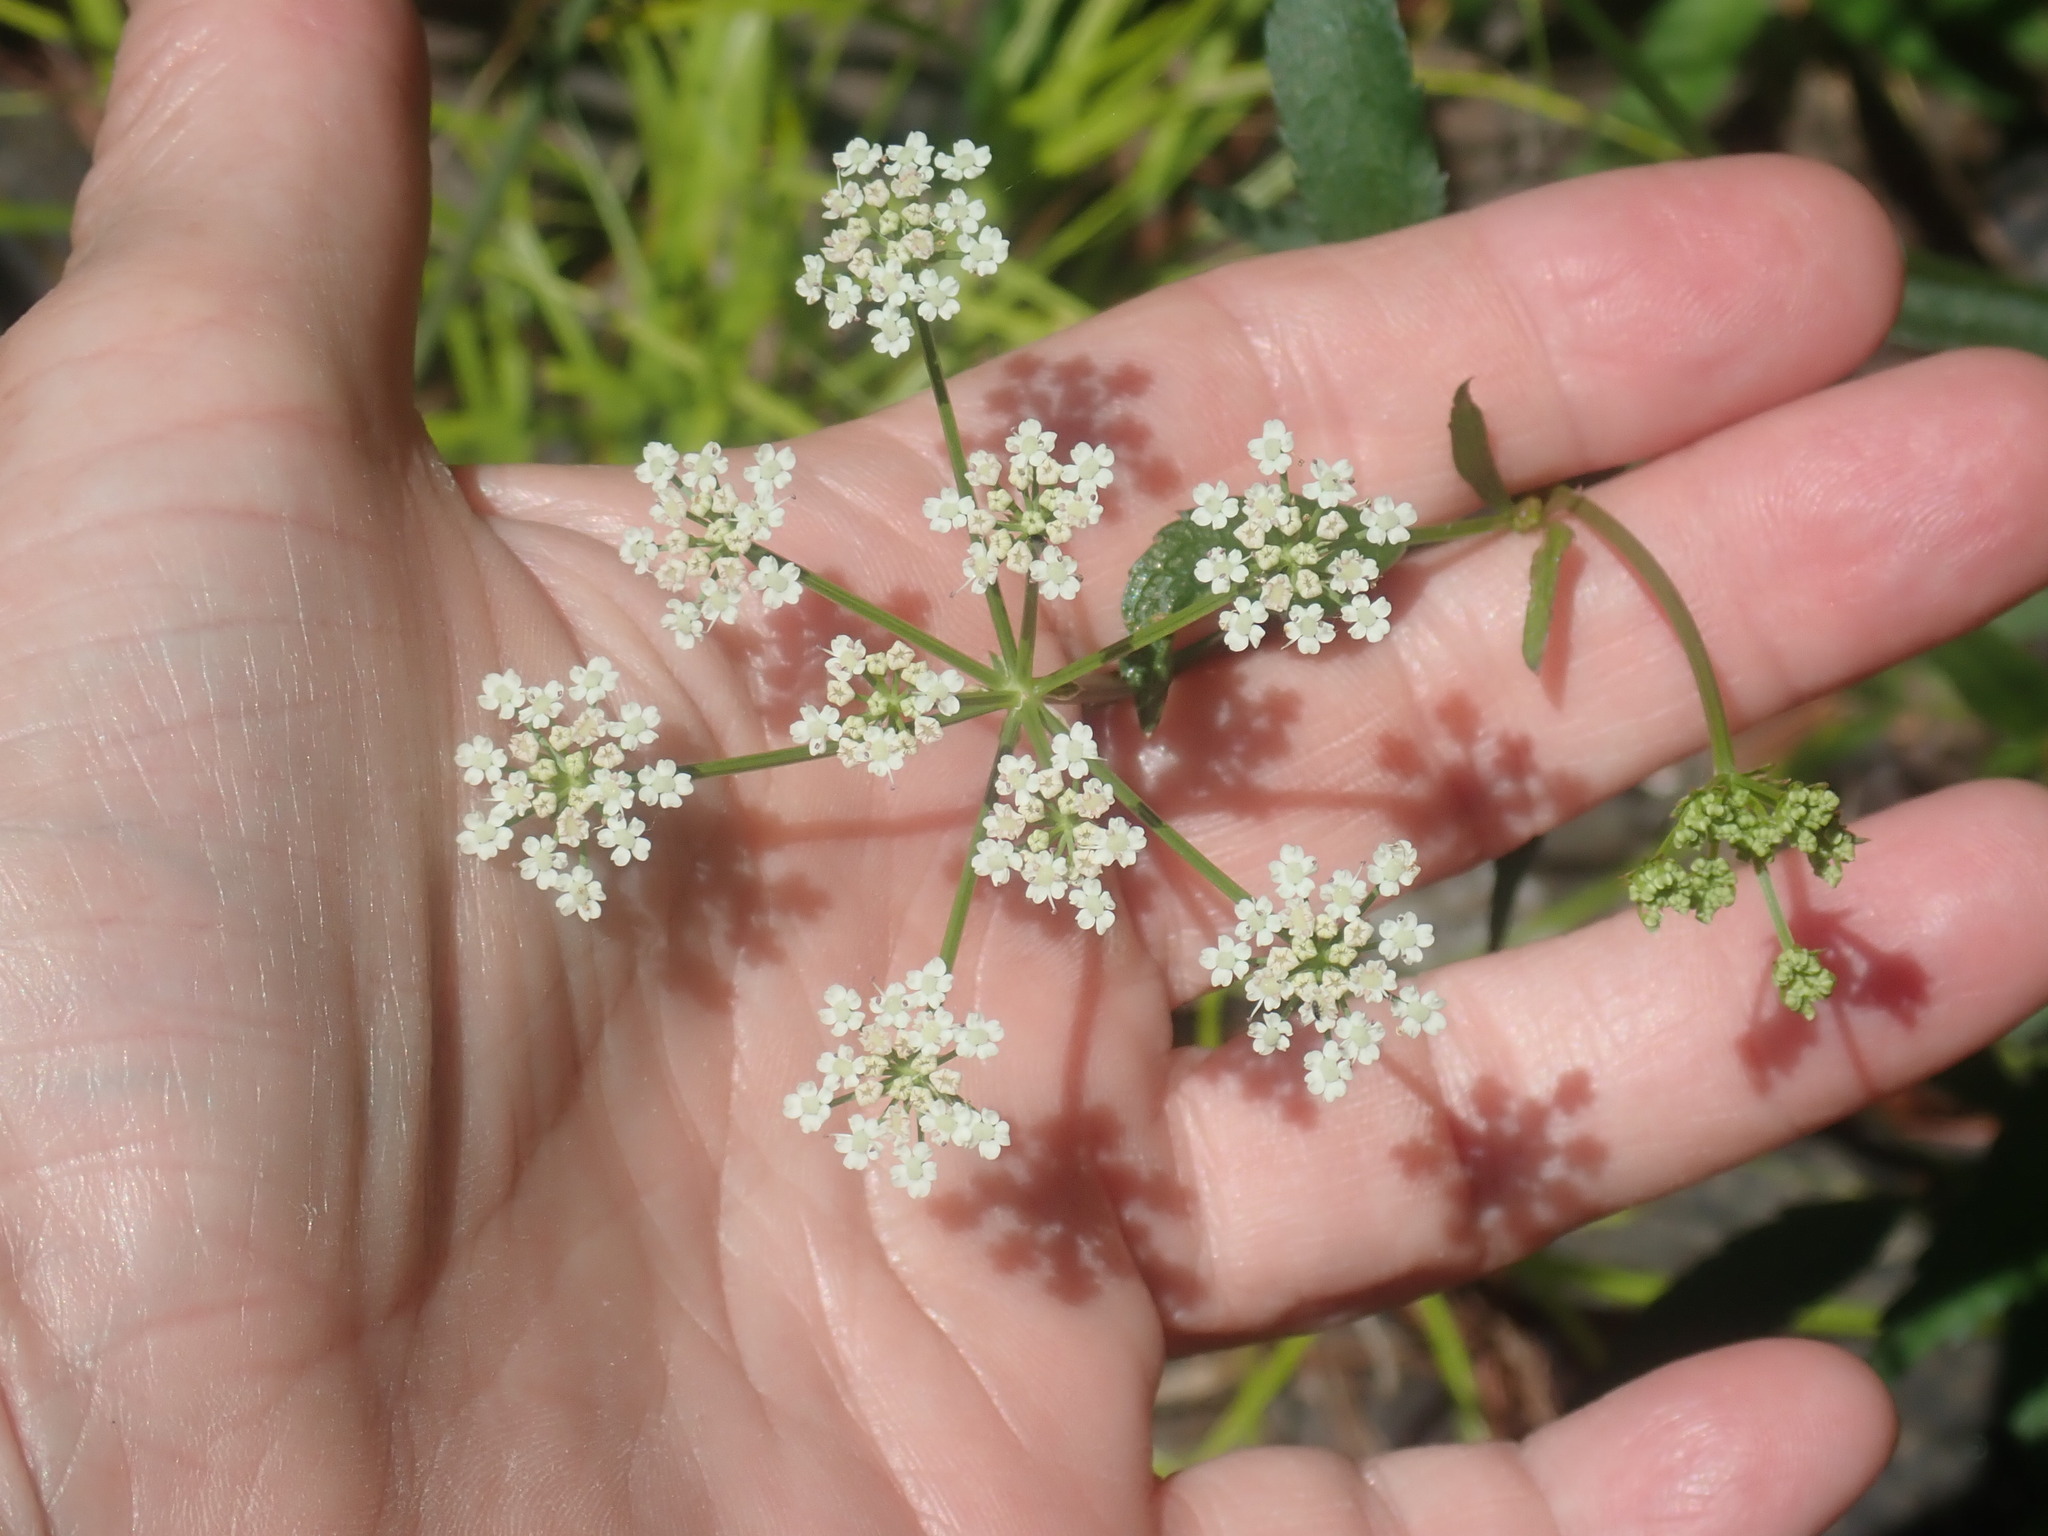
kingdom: Plantae
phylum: Tracheophyta
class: Magnoliopsida
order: Apiales
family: Apiaceae
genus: Sium
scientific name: Sium suave
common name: Hemlock water-parsnip
